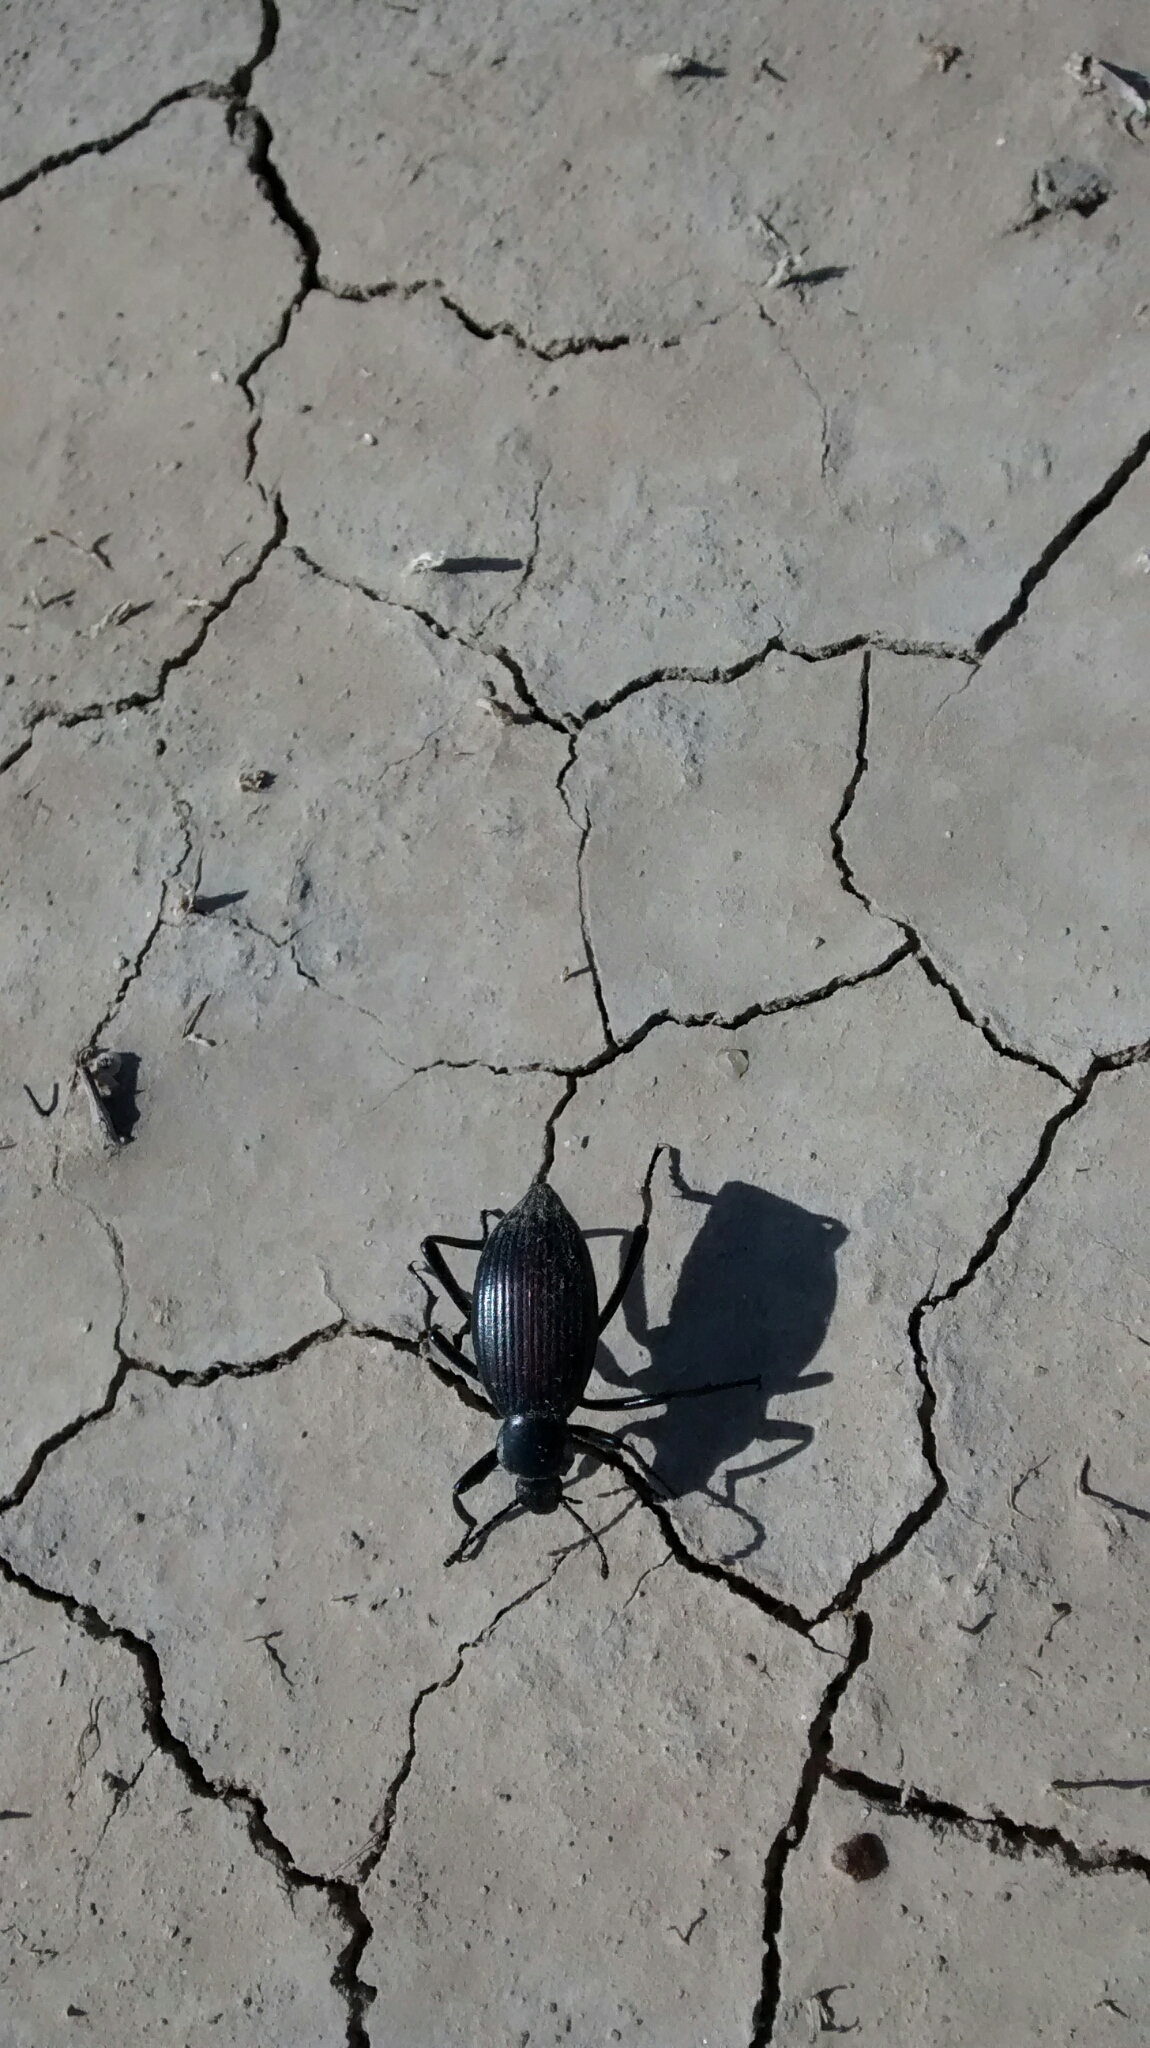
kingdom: Animalia
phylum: Arthropoda
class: Insecta
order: Coleoptera
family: Tenebrionidae
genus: Eleodes
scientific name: Eleodes hispilabris
